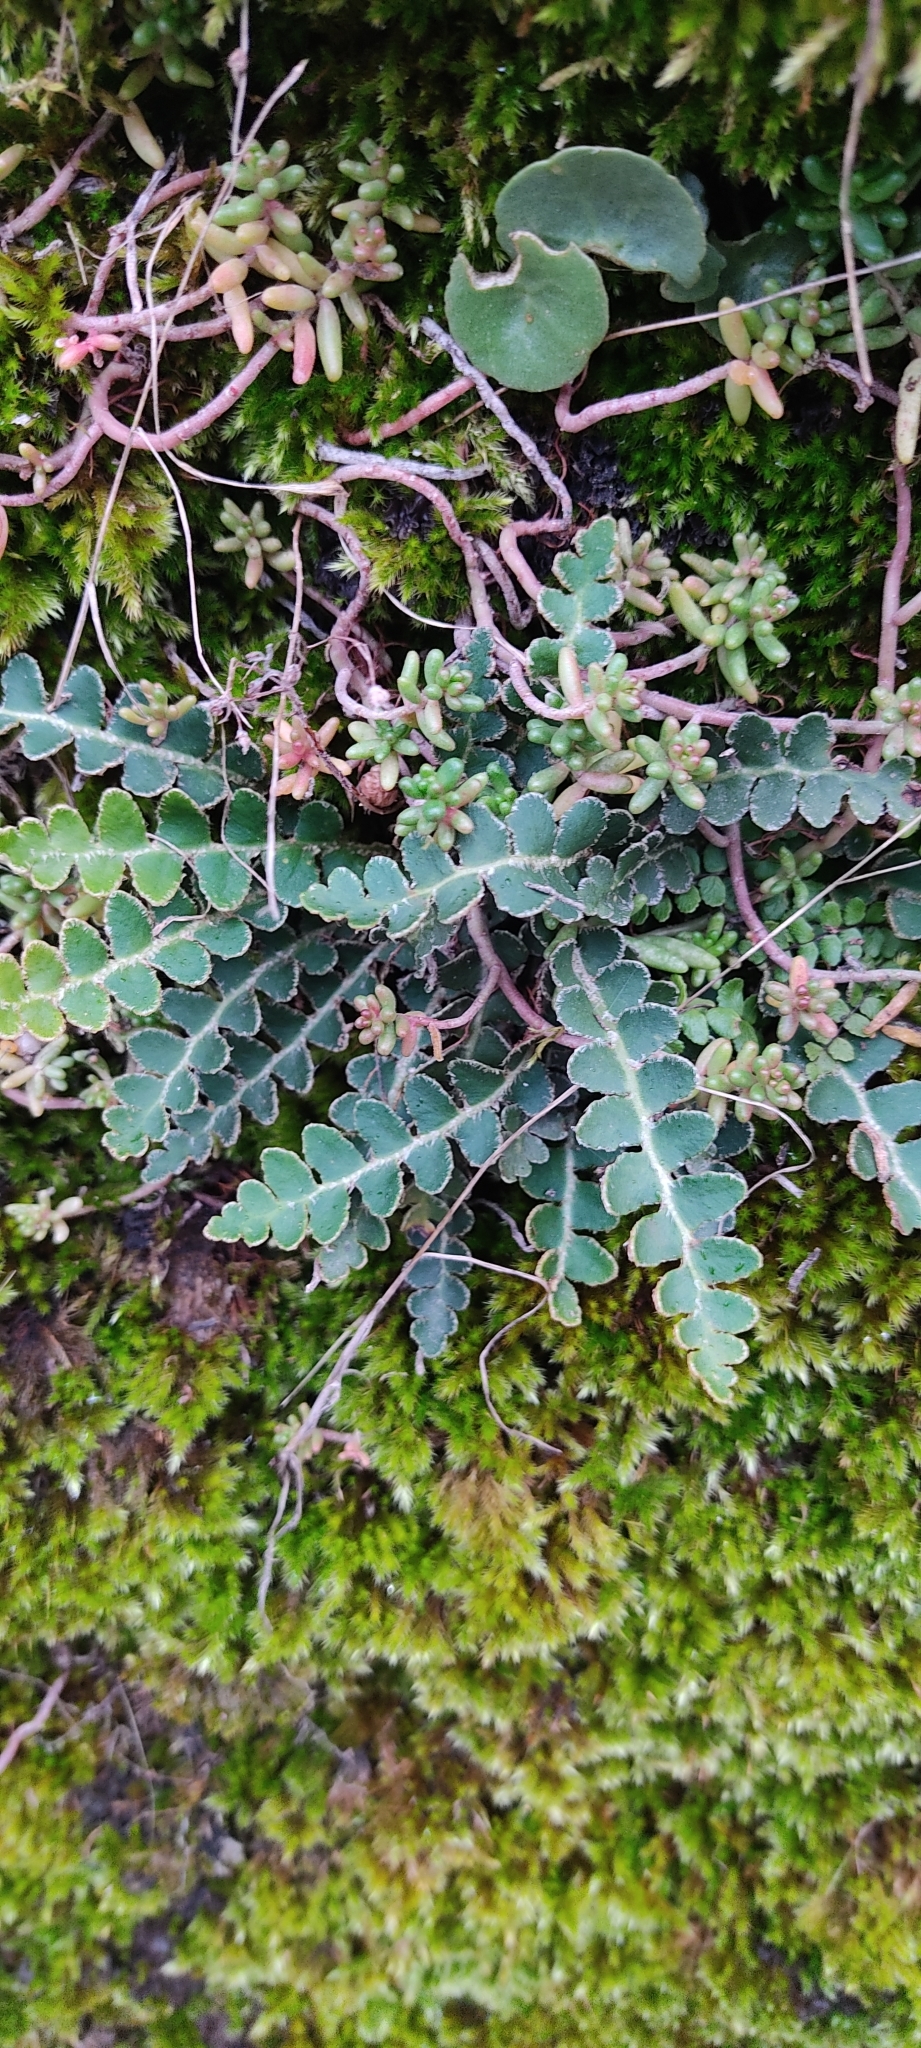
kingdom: Plantae
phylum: Tracheophyta
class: Polypodiopsida
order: Polypodiales
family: Aspleniaceae
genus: Asplenium
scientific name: Asplenium ceterach
